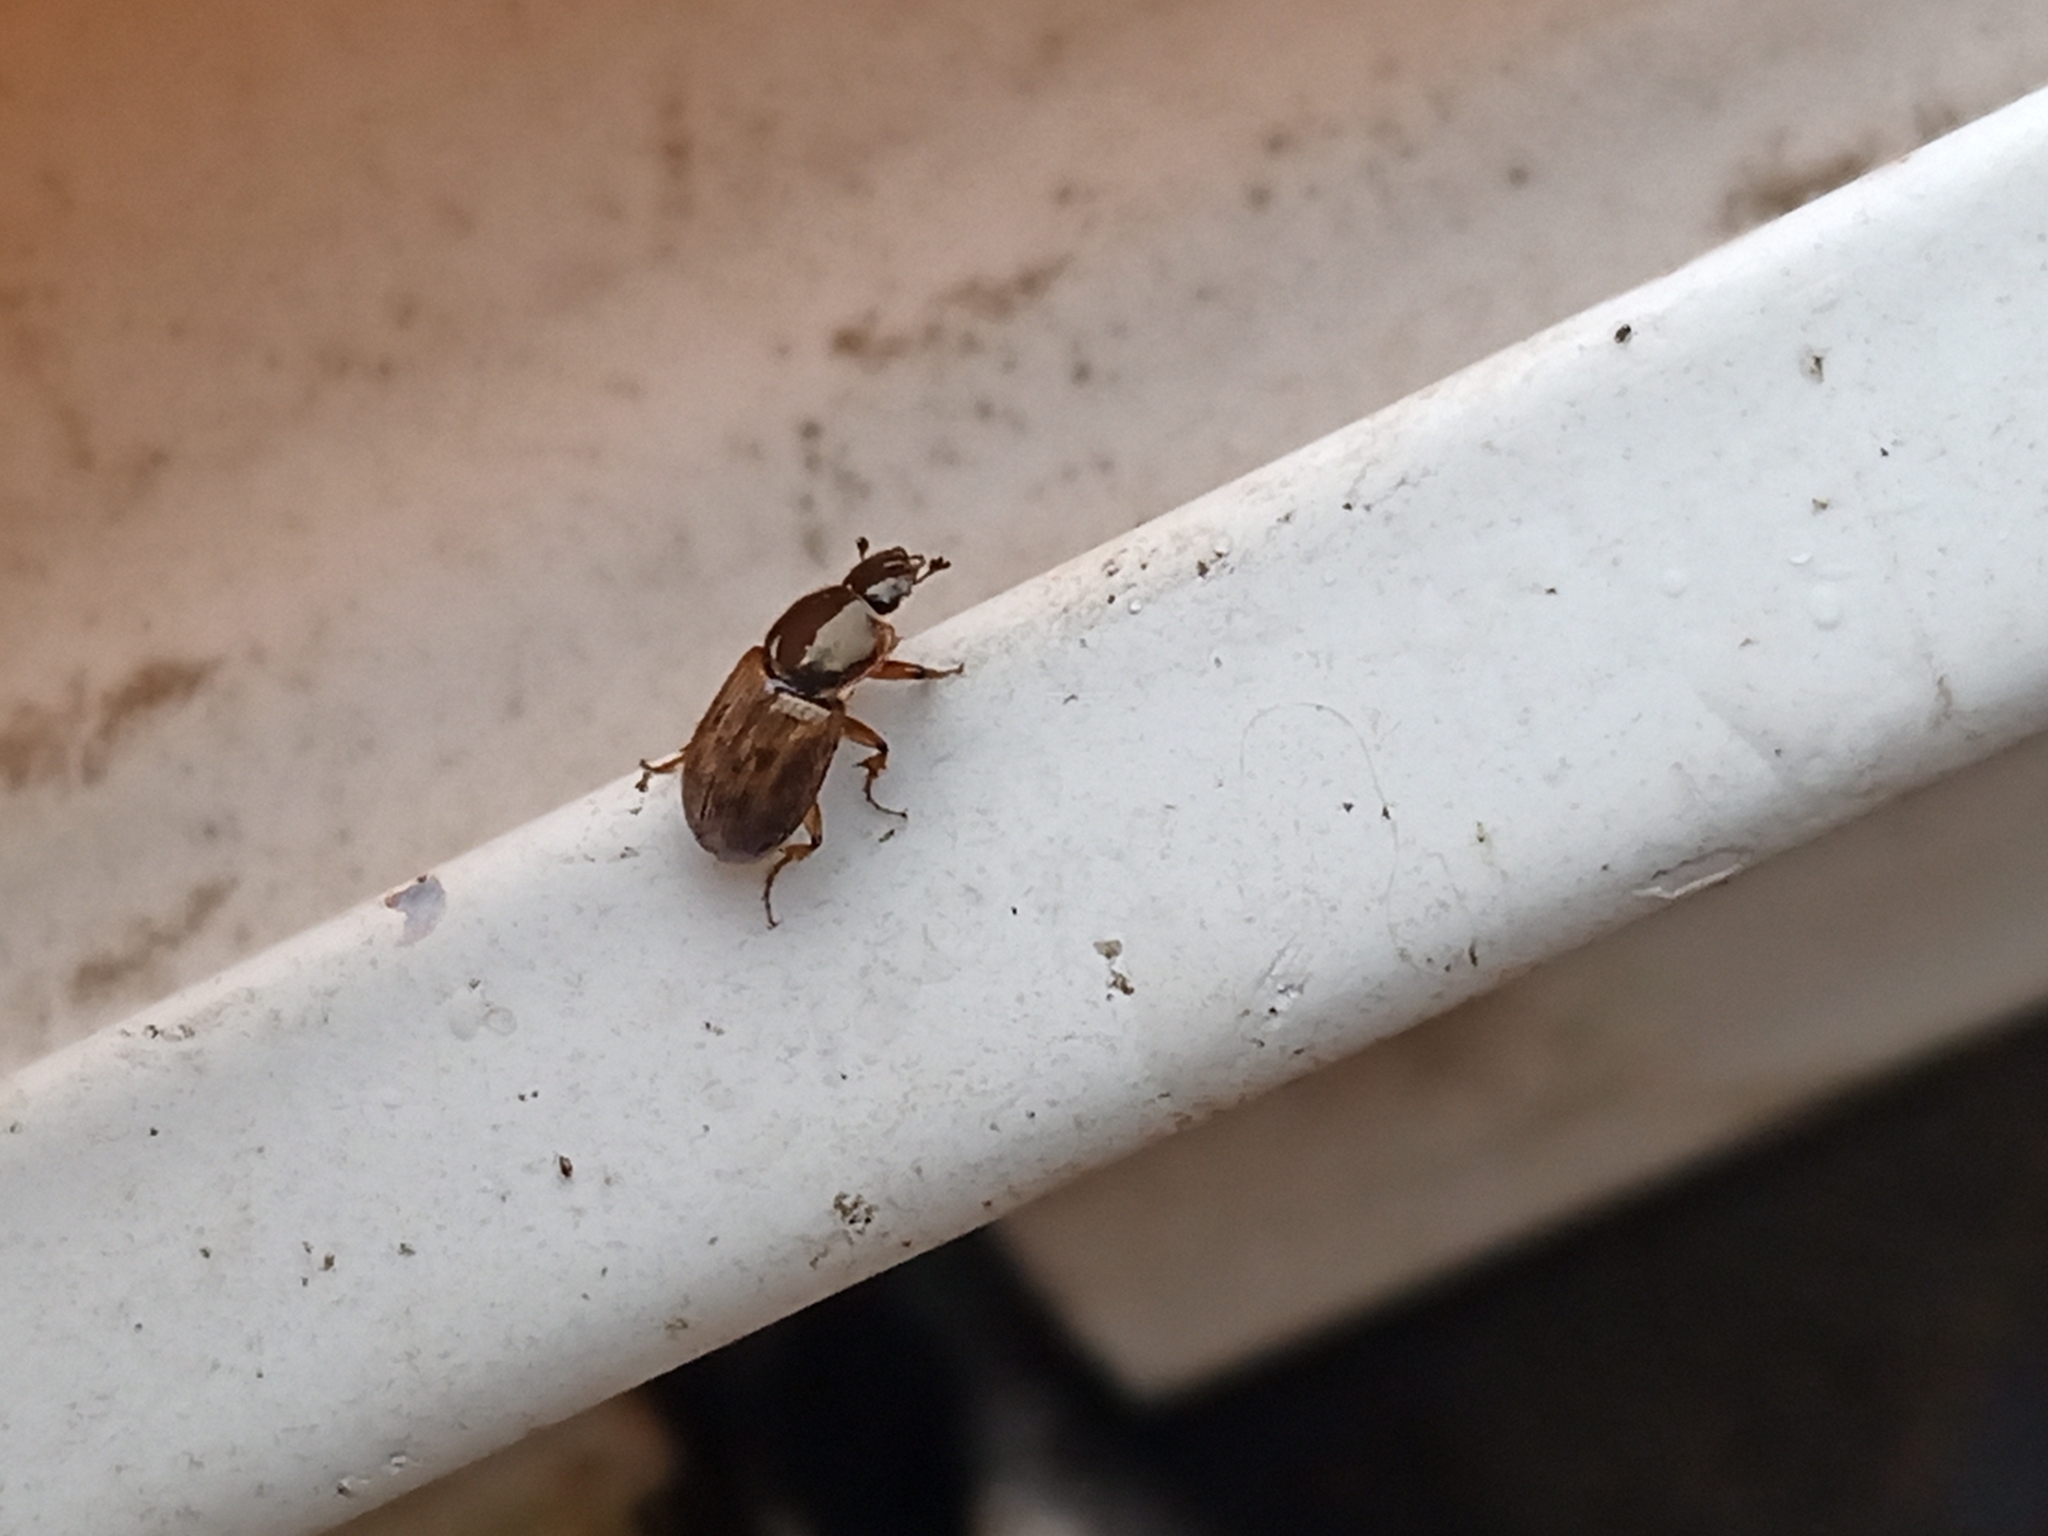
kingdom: Animalia
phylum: Arthropoda
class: Insecta
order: Coleoptera
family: Scarabaeidae
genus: Nimbus
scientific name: Nimbus contaminatus
